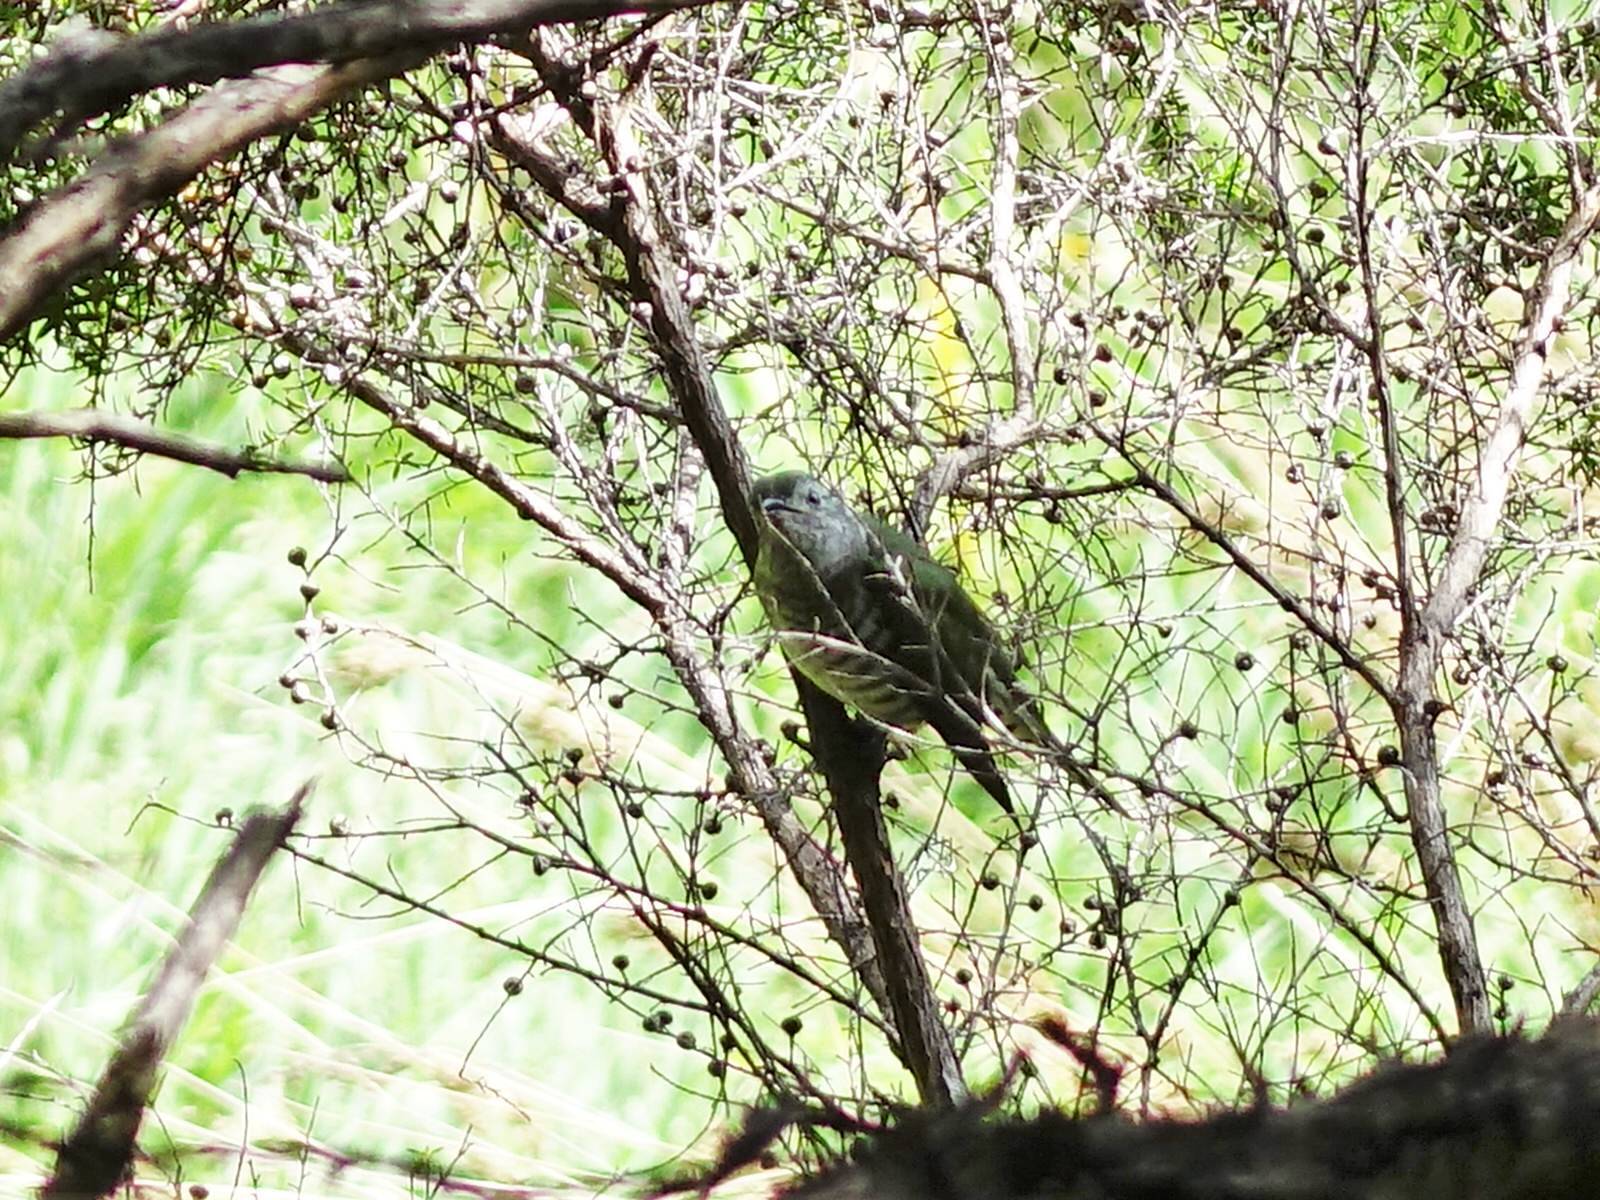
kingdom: Animalia
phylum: Chordata
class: Aves
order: Cuculiformes
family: Cuculidae
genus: Chrysococcyx
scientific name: Chrysococcyx lucidus
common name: Shining bronze cuckoo
